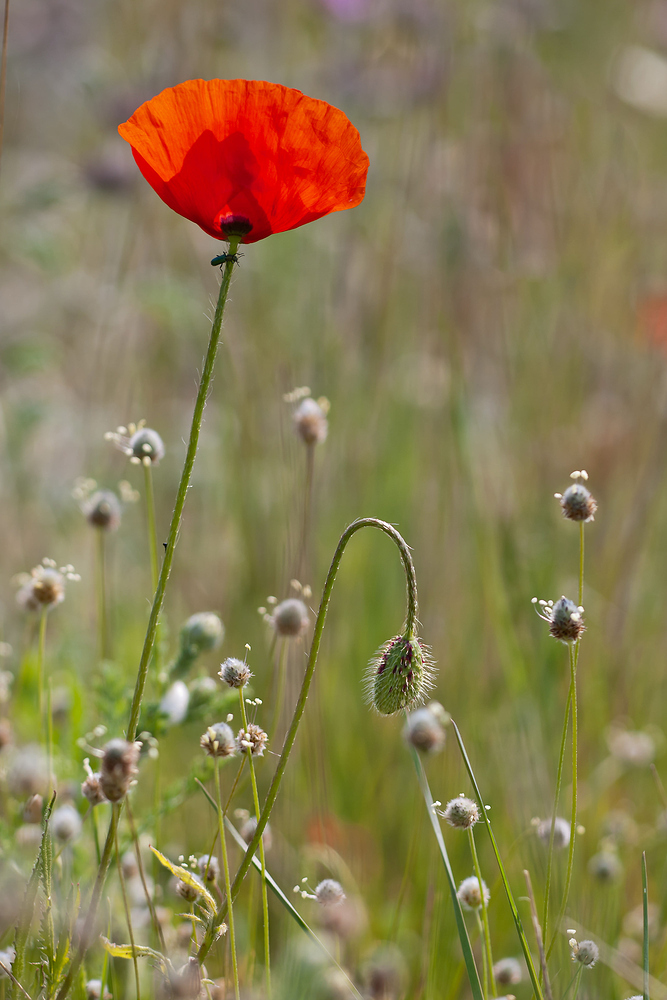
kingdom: Plantae
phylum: Tracheophyta
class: Magnoliopsida
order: Ranunculales
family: Papaveraceae
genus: Papaver
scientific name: Papaver rhoeas
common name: Corn poppy
